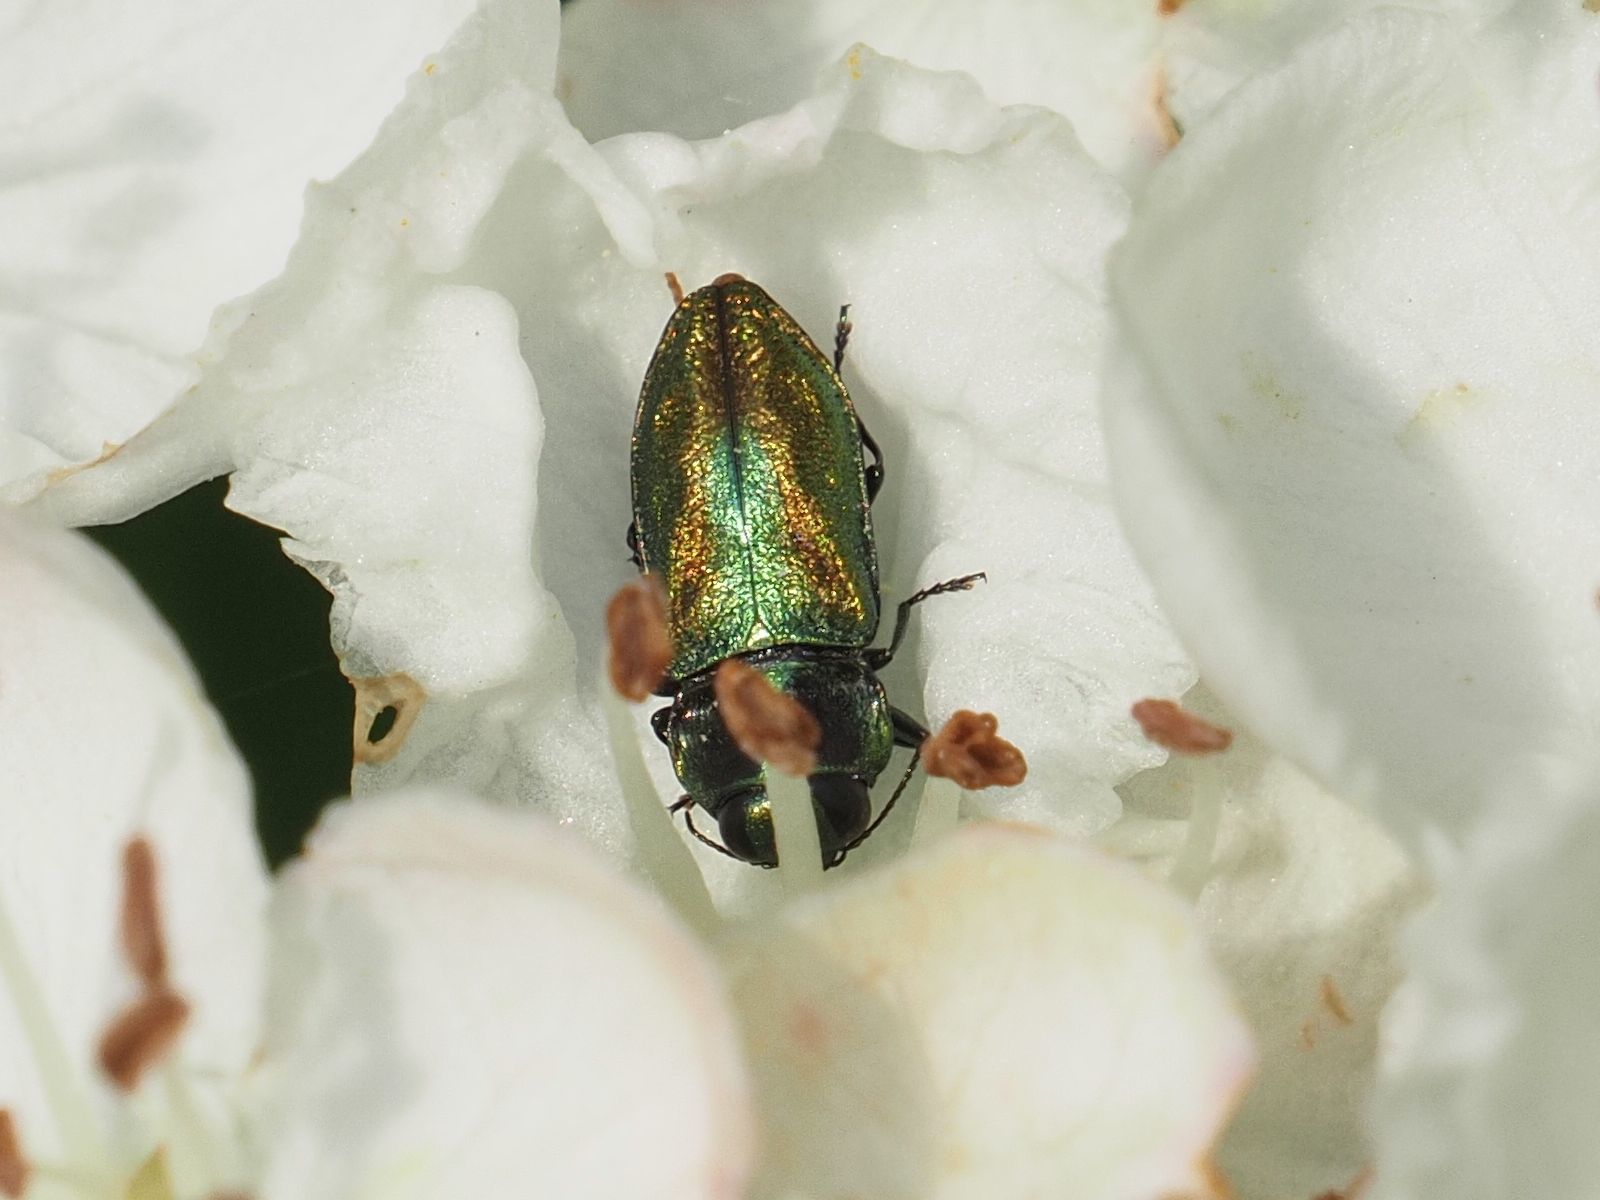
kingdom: Animalia
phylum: Arthropoda
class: Insecta
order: Coleoptera
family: Buprestidae
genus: Anthaxia
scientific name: Anthaxia fulgurans
